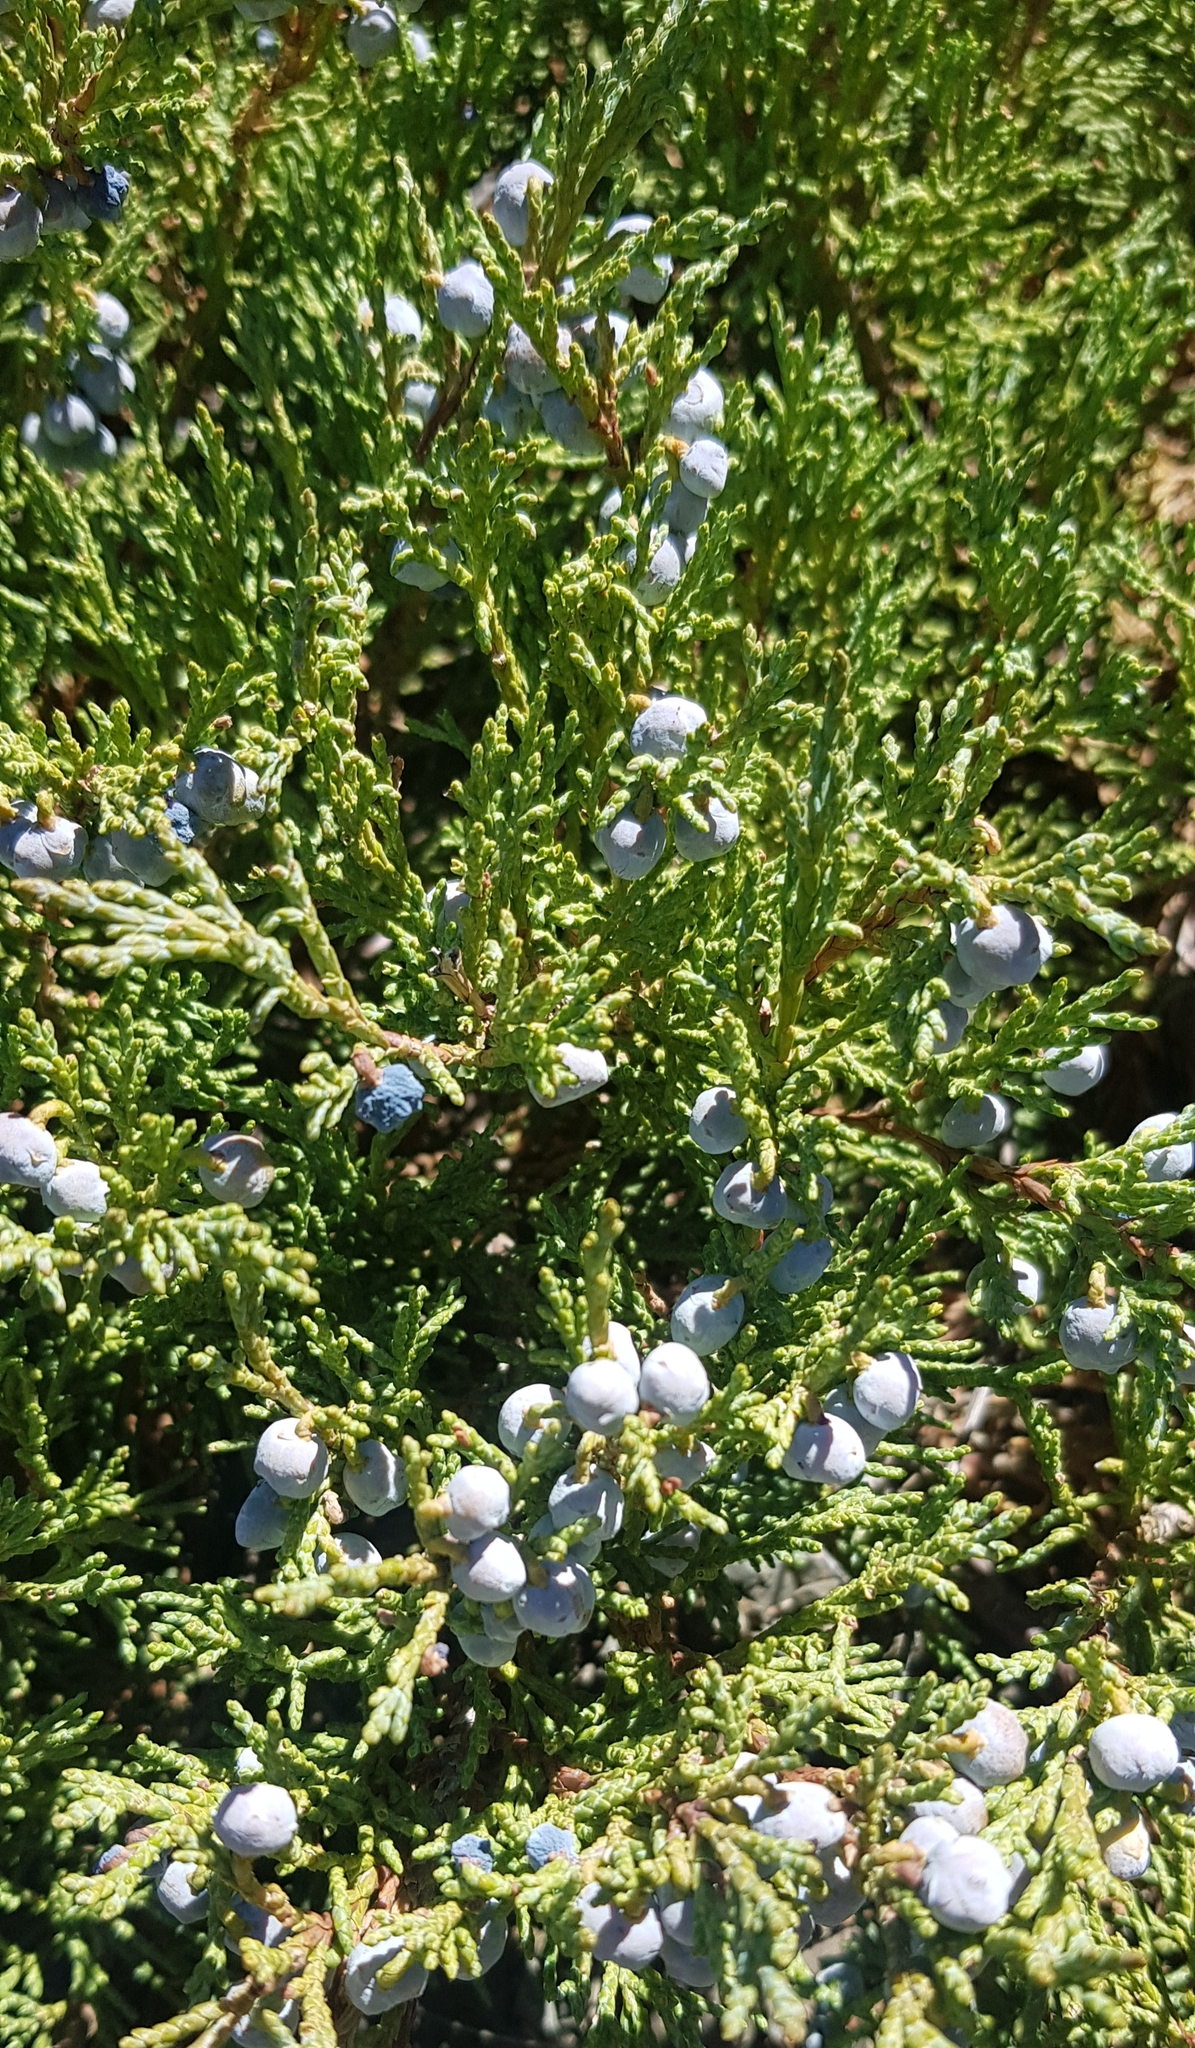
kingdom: Plantae
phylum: Tracheophyta
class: Pinopsida
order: Pinales
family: Cupressaceae
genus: Juniperus
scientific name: Juniperus sabina
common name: Savin
